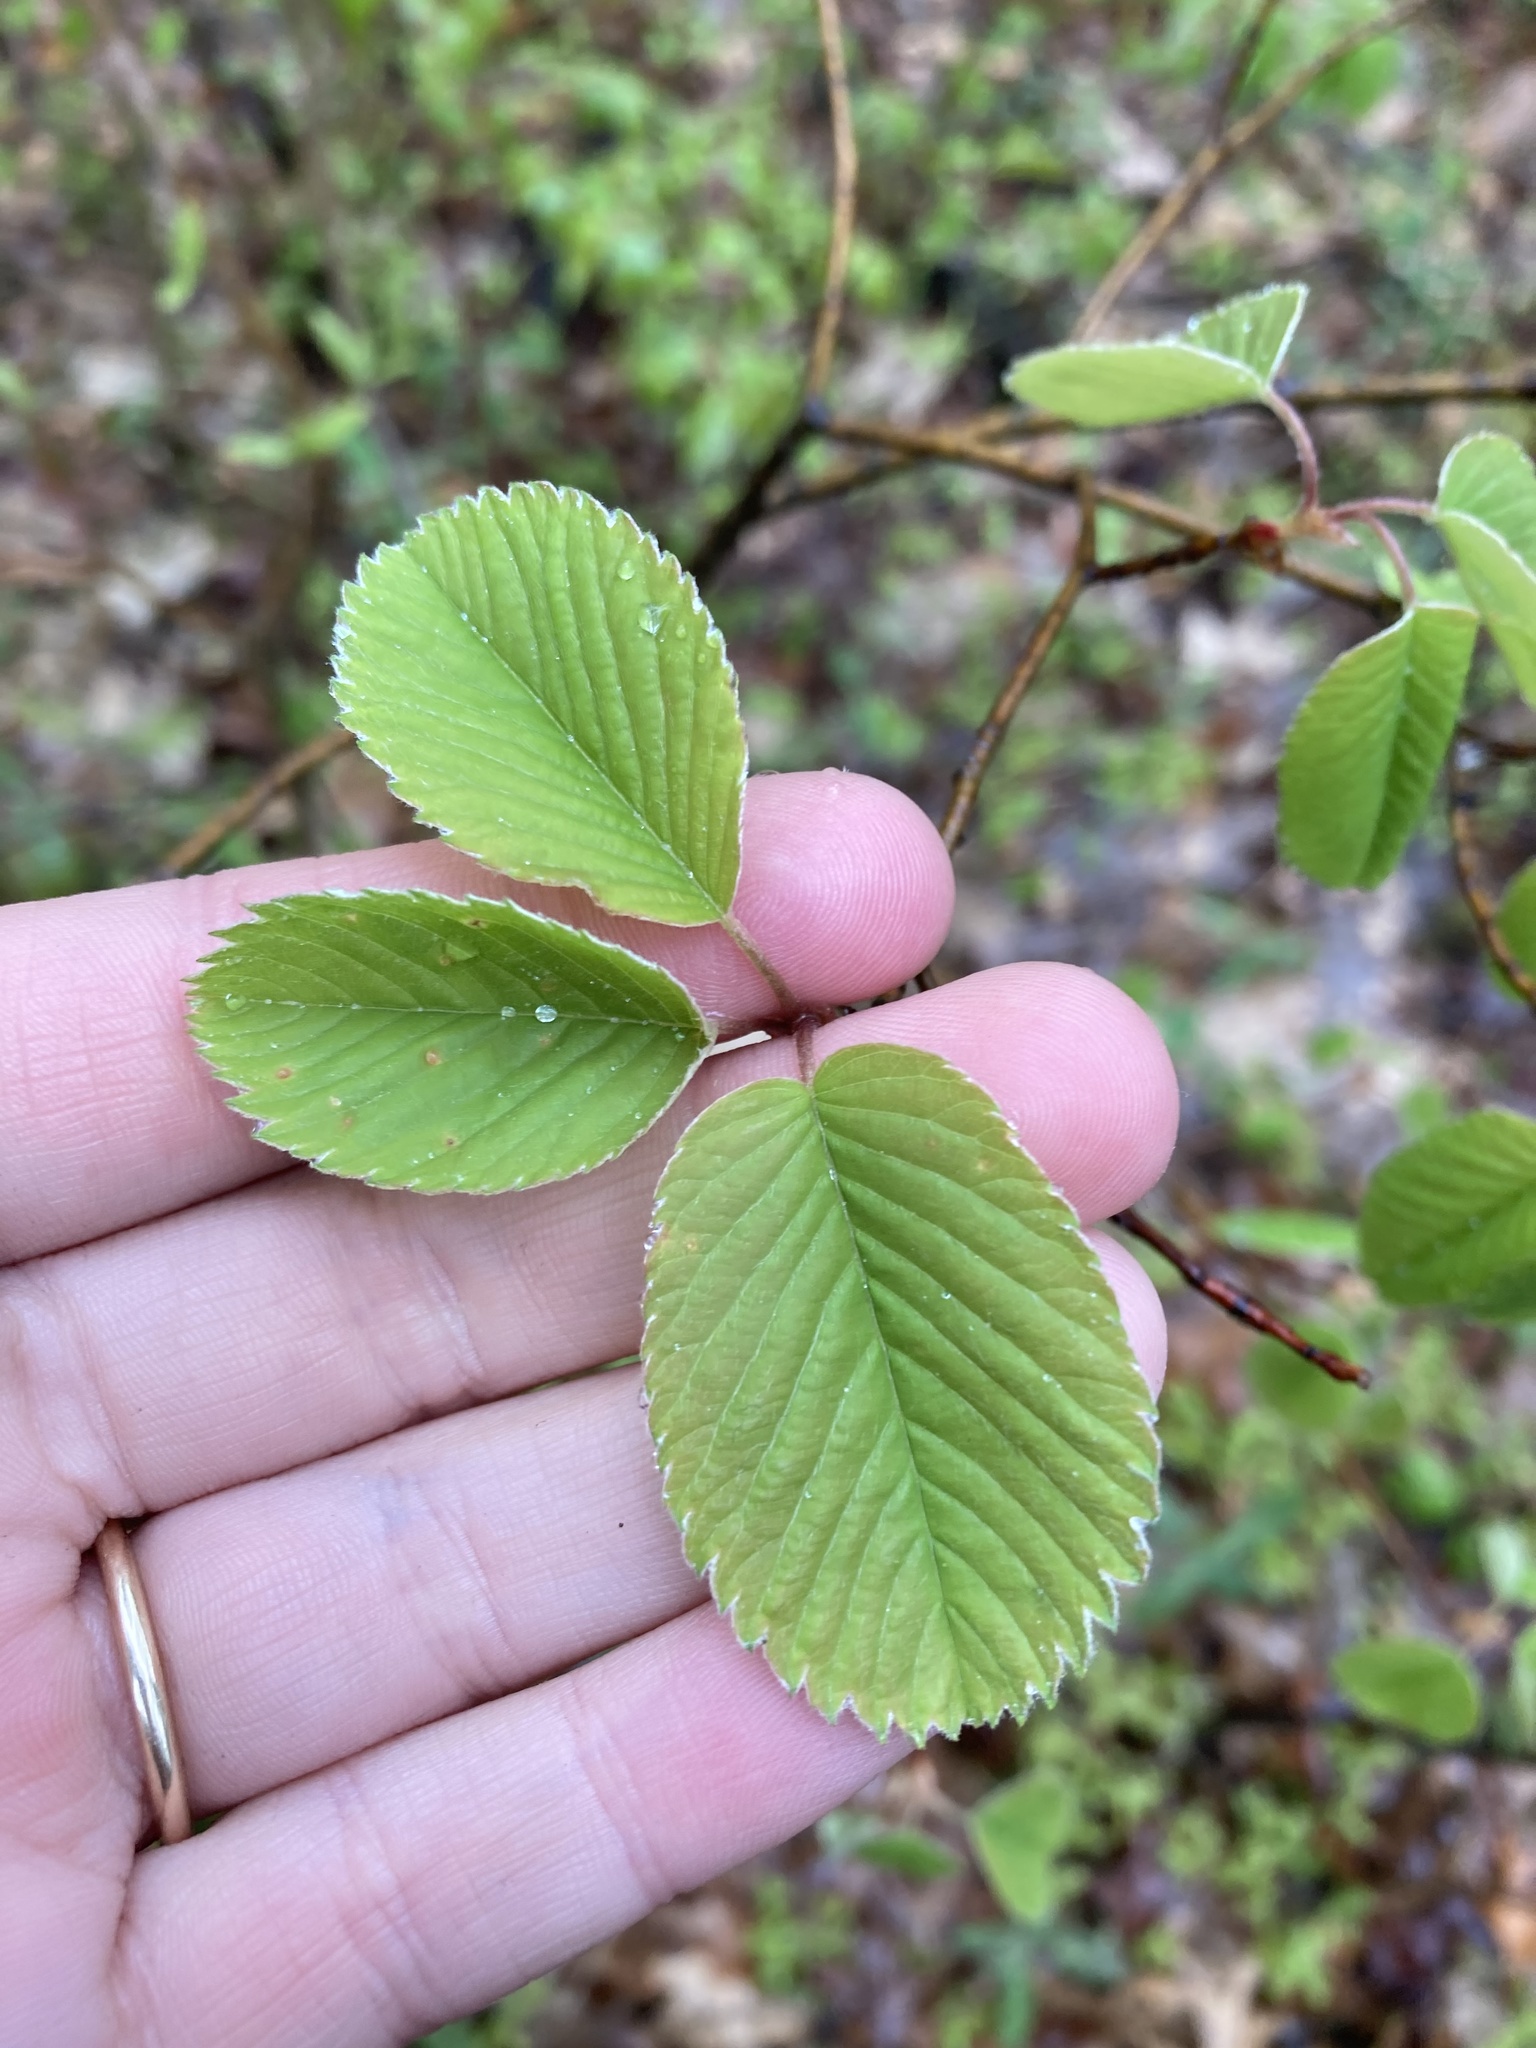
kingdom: Plantae
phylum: Tracheophyta
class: Magnoliopsida
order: Rosales
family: Rosaceae
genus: Amelanchier
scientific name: Amelanchier alnifolia
